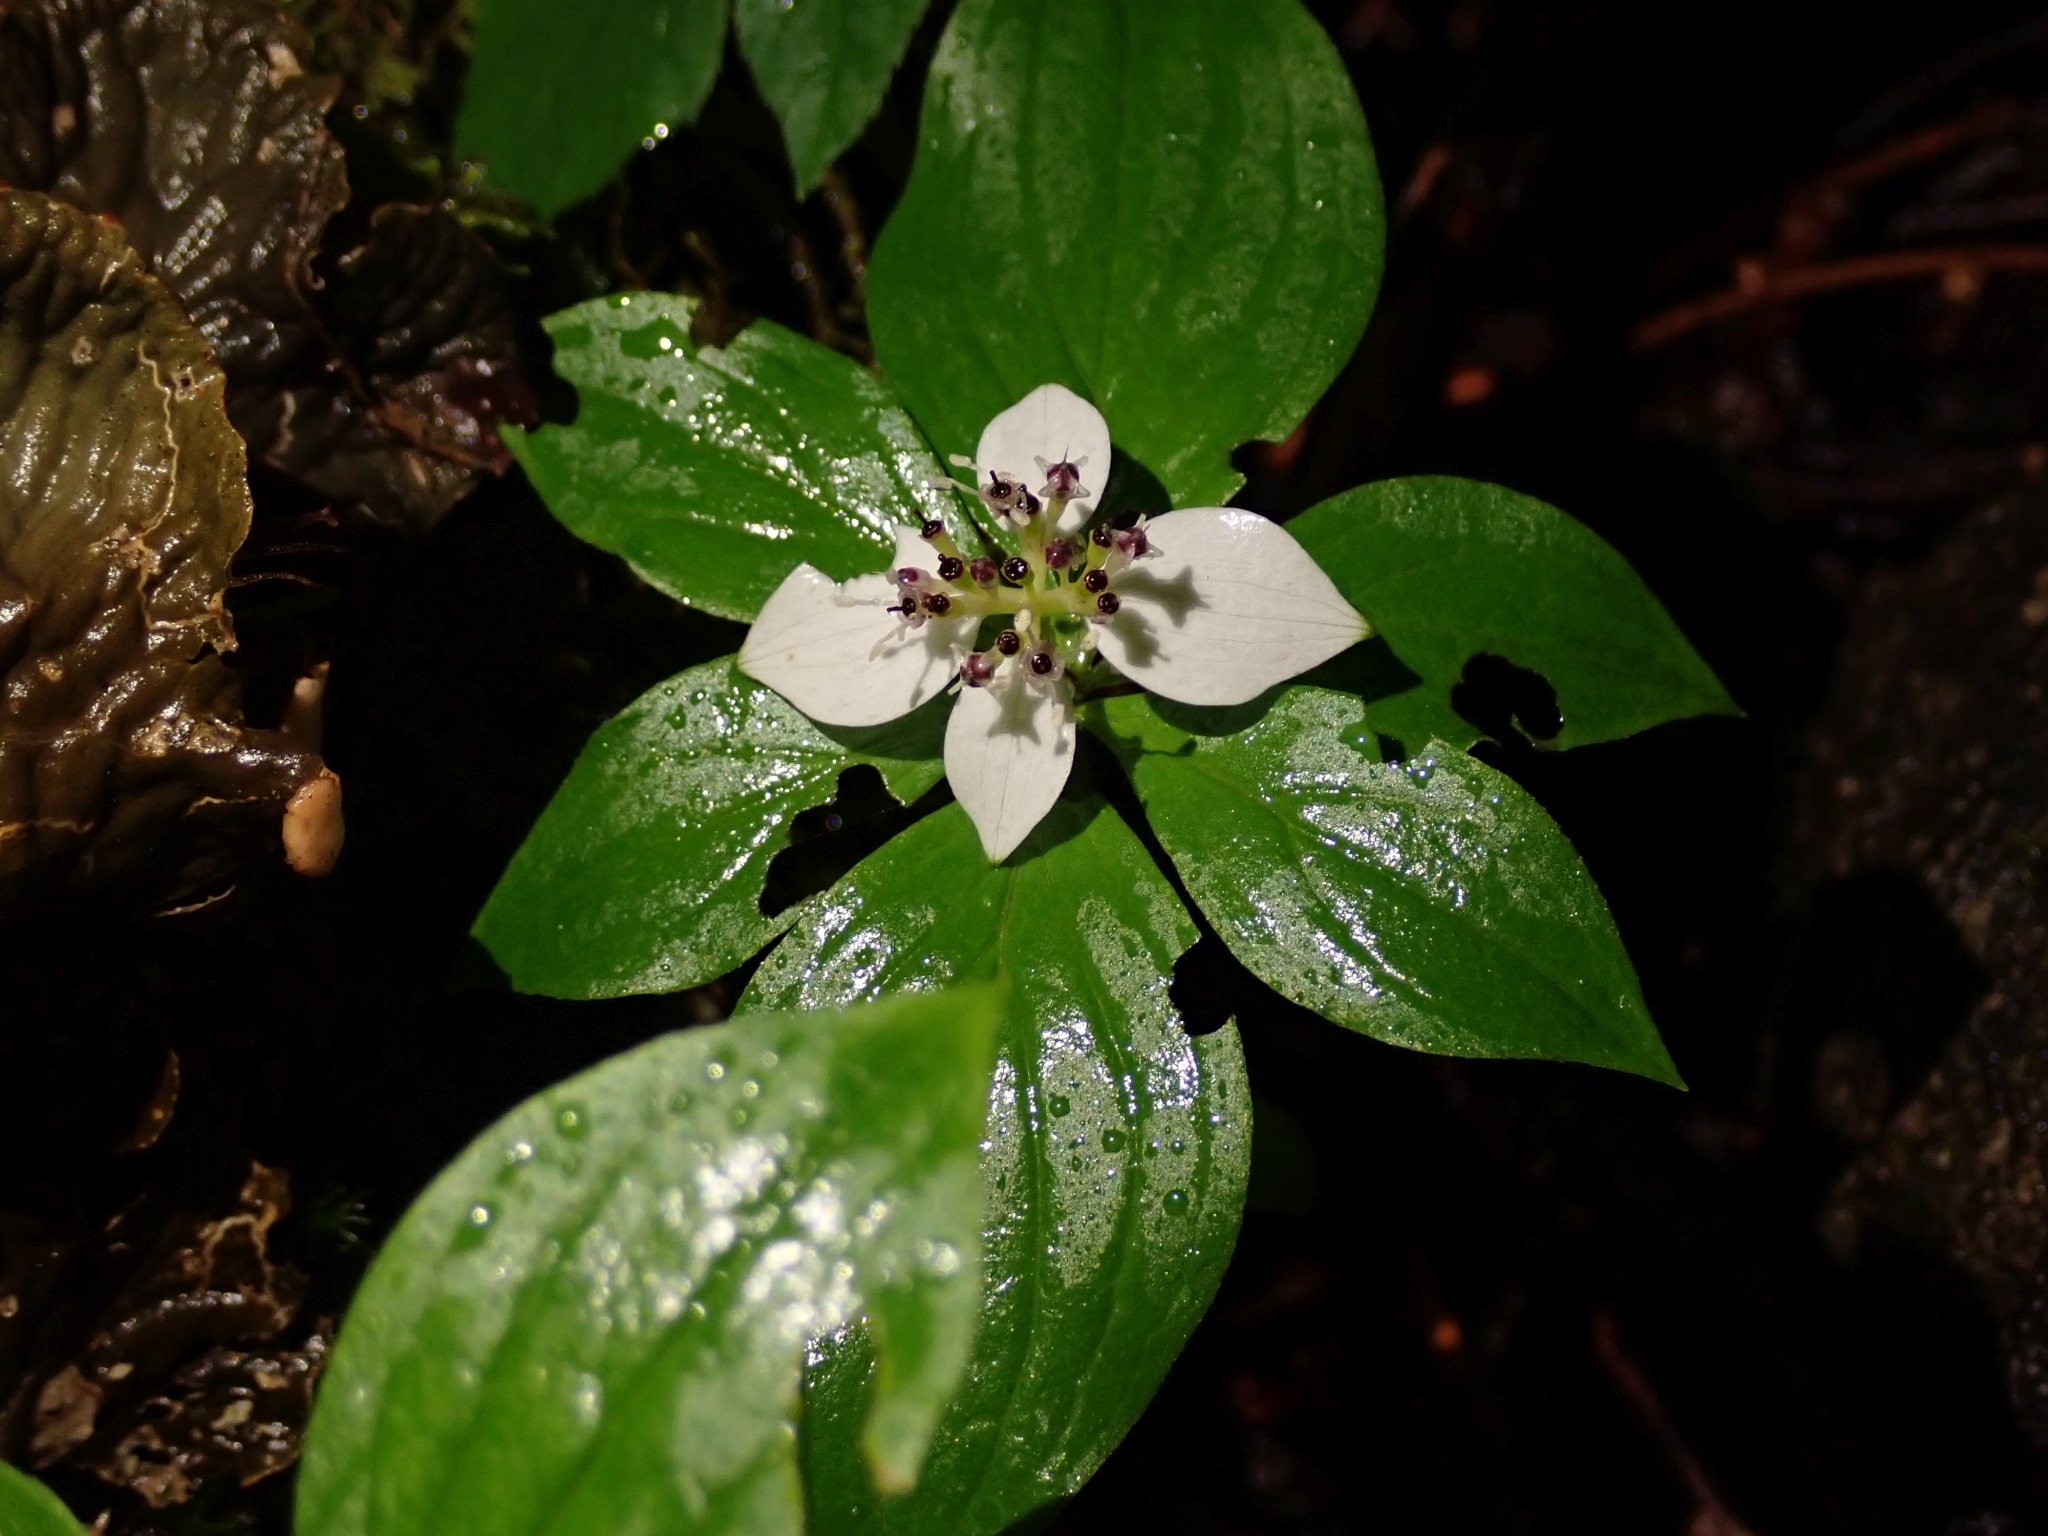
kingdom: Plantae
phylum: Tracheophyta
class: Magnoliopsida
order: Cornales
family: Cornaceae
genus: Cornus
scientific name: Cornus unalaschkensis
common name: Alaska bunchberry
